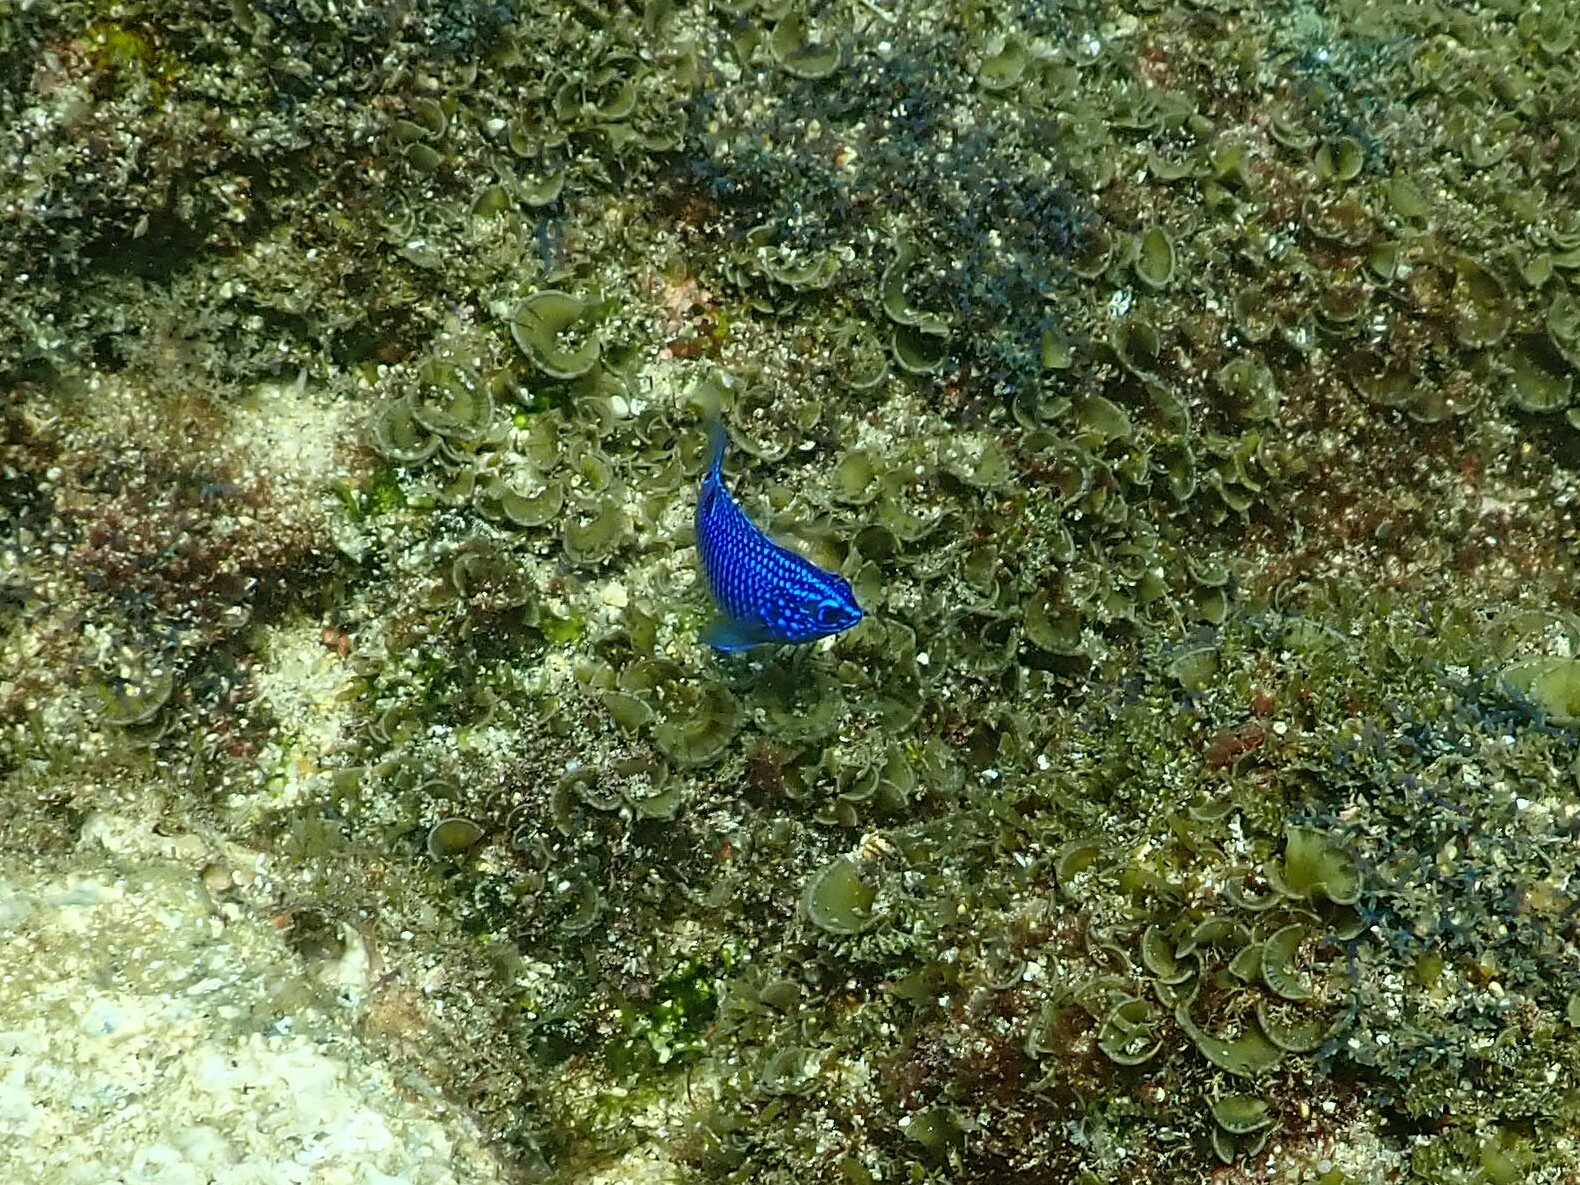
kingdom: Animalia
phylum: Chordata
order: Perciformes
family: Pomacentridae
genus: Stegastes
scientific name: Stegastes acapulcoensis
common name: Acapulco damselfish
